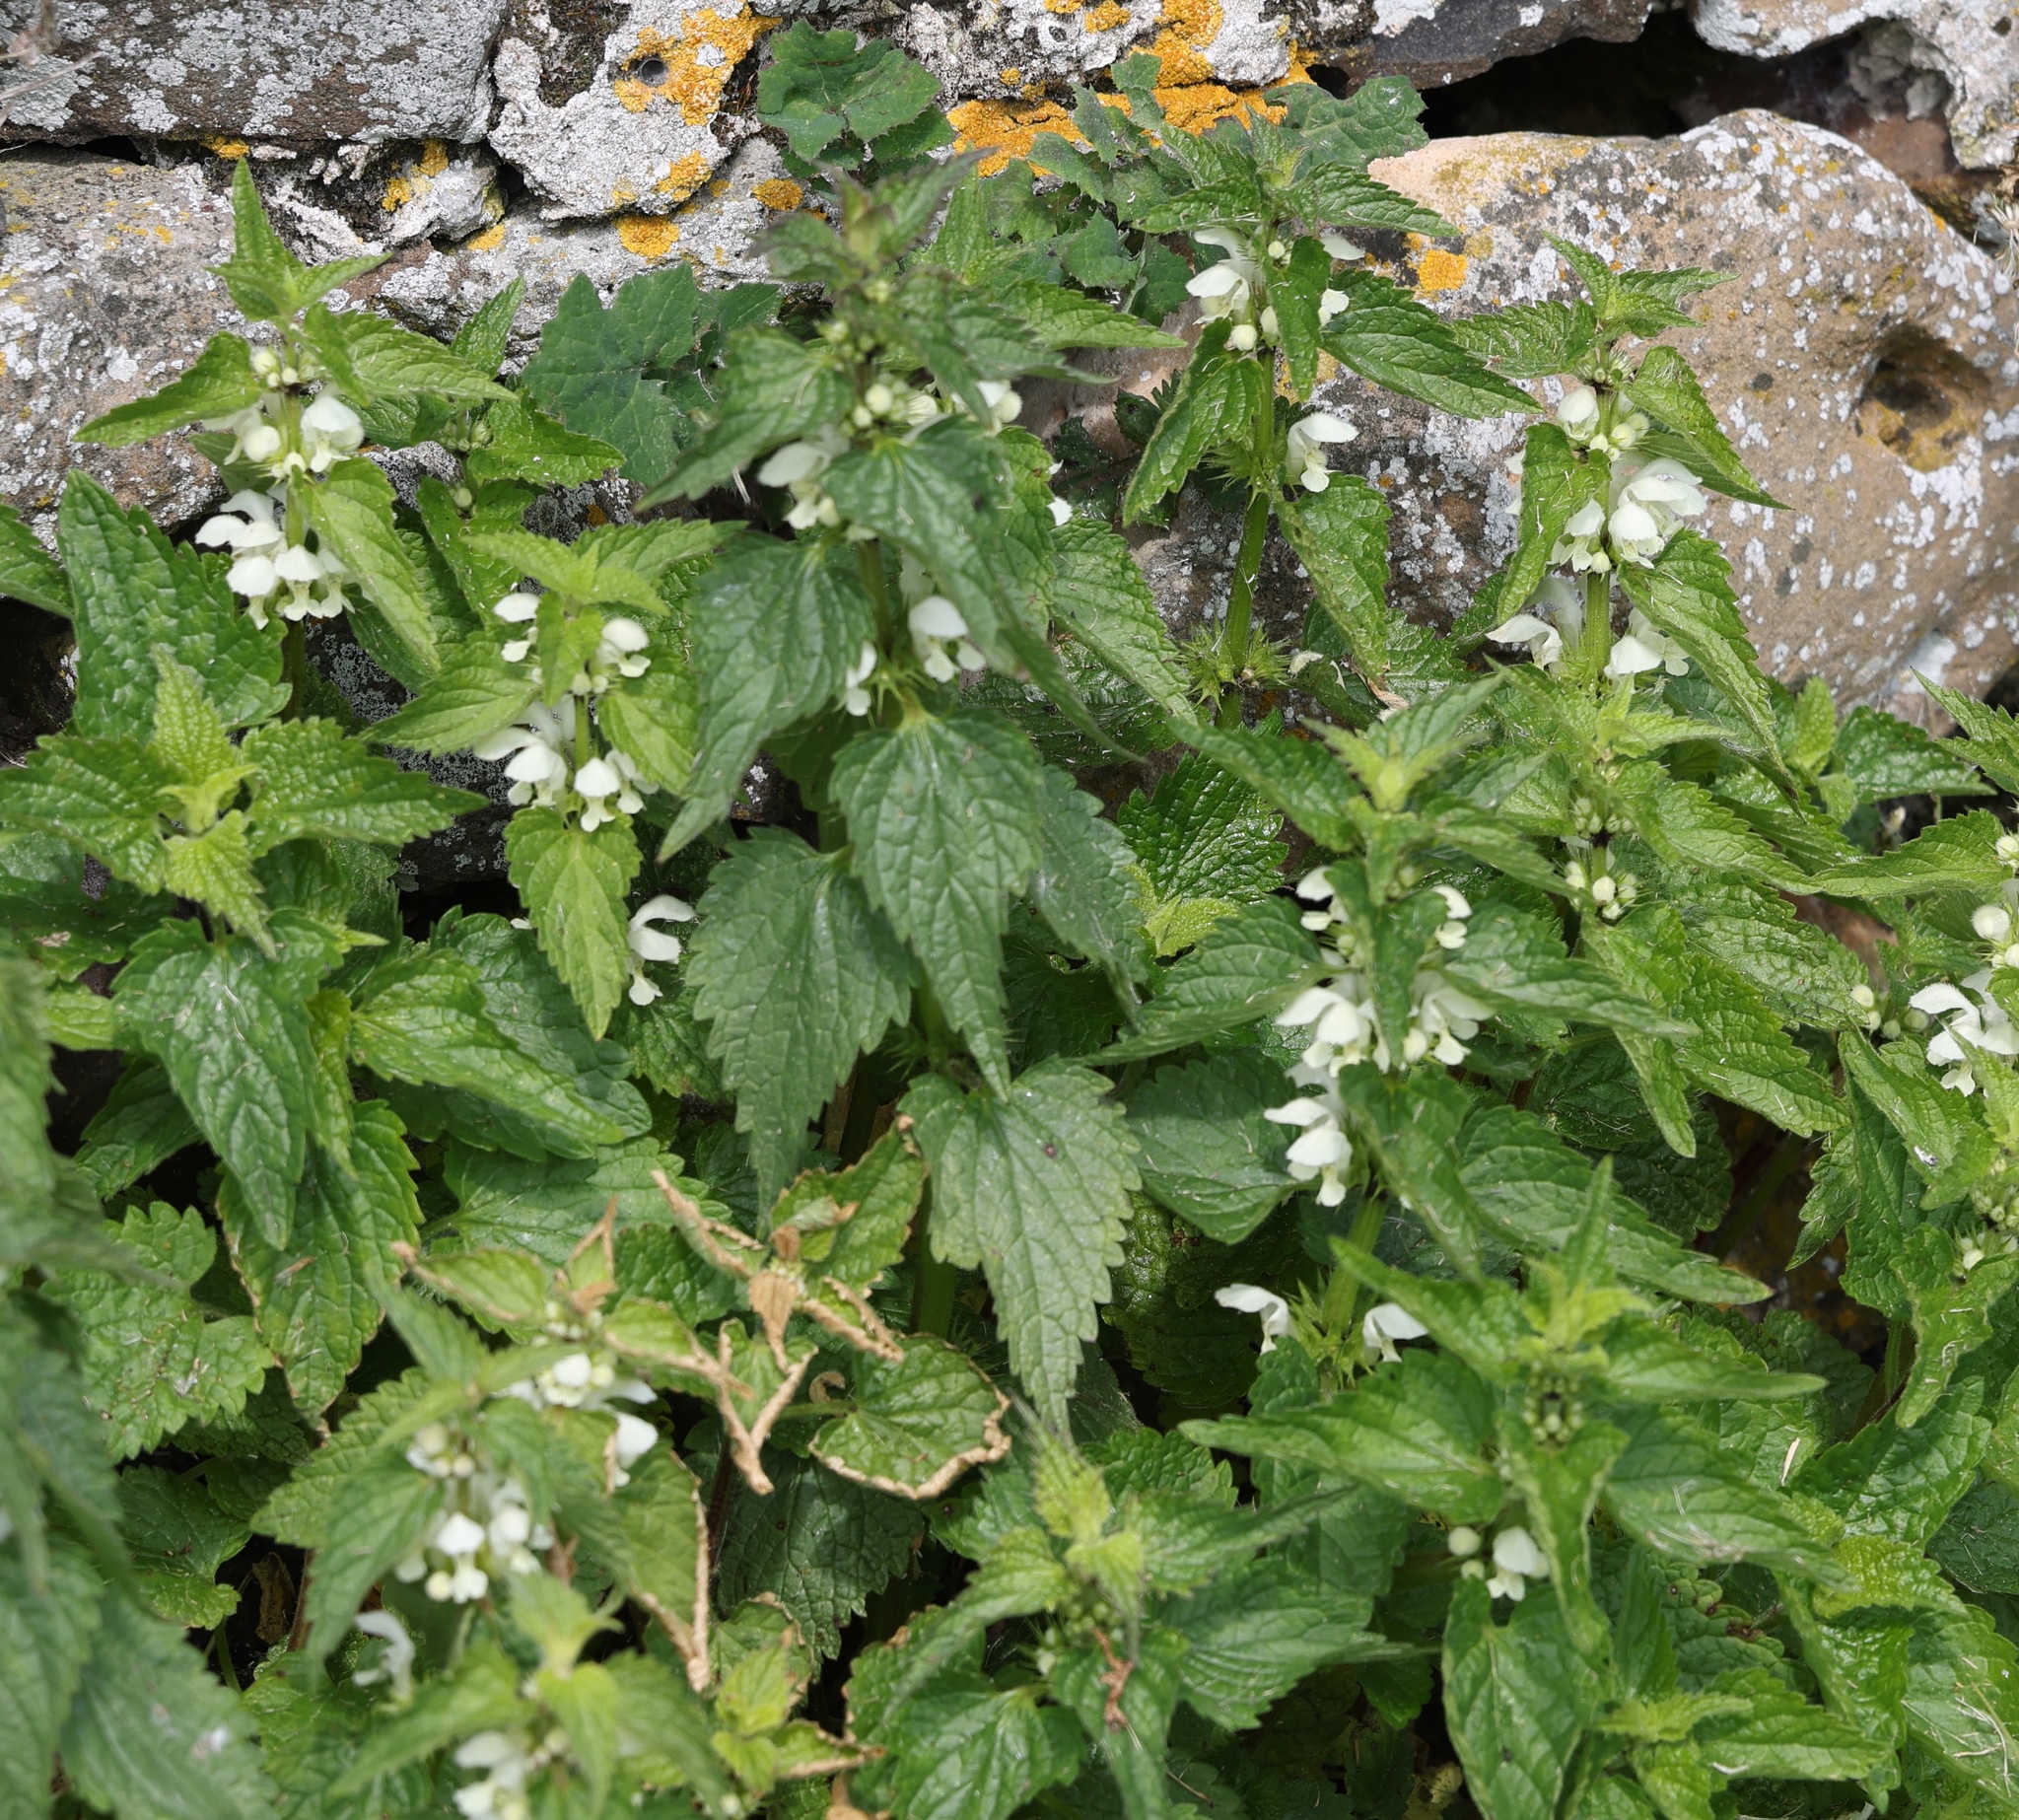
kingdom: Plantae
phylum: Tracheophyta
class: Magnoliopsida
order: Lamiales
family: Lamiaceae
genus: Lamium
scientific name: Lamium album
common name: White dead-nettle
